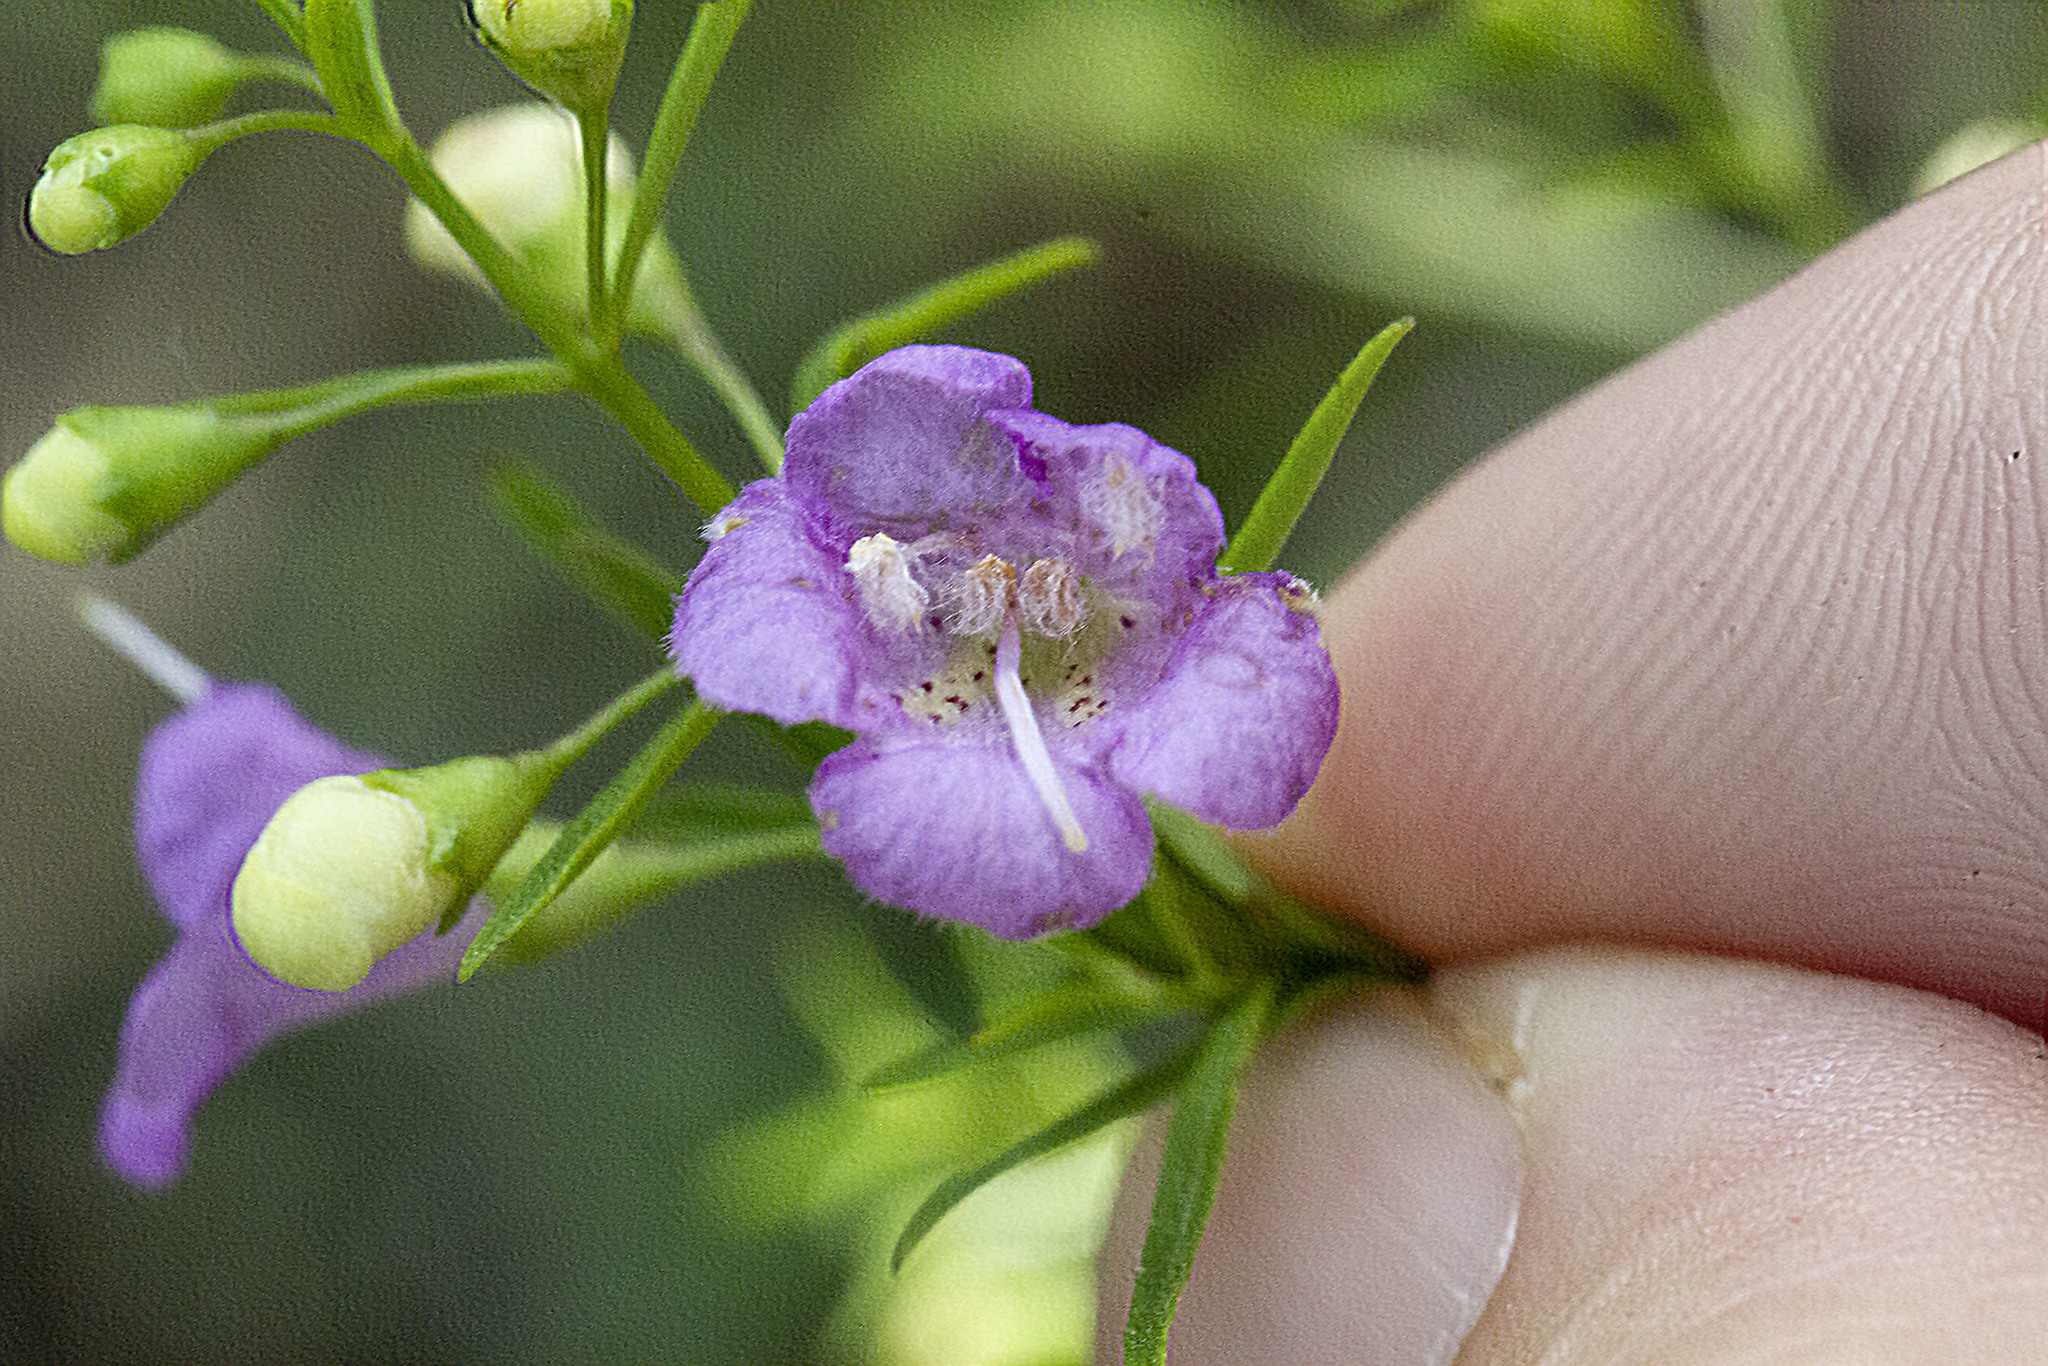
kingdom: Plantae
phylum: Tracheophyta
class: Magnoliopsida
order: Lamiales
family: Orobanchaceae
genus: Agalinis
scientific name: Agalinis tenuifolia
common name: Slender agalinis
